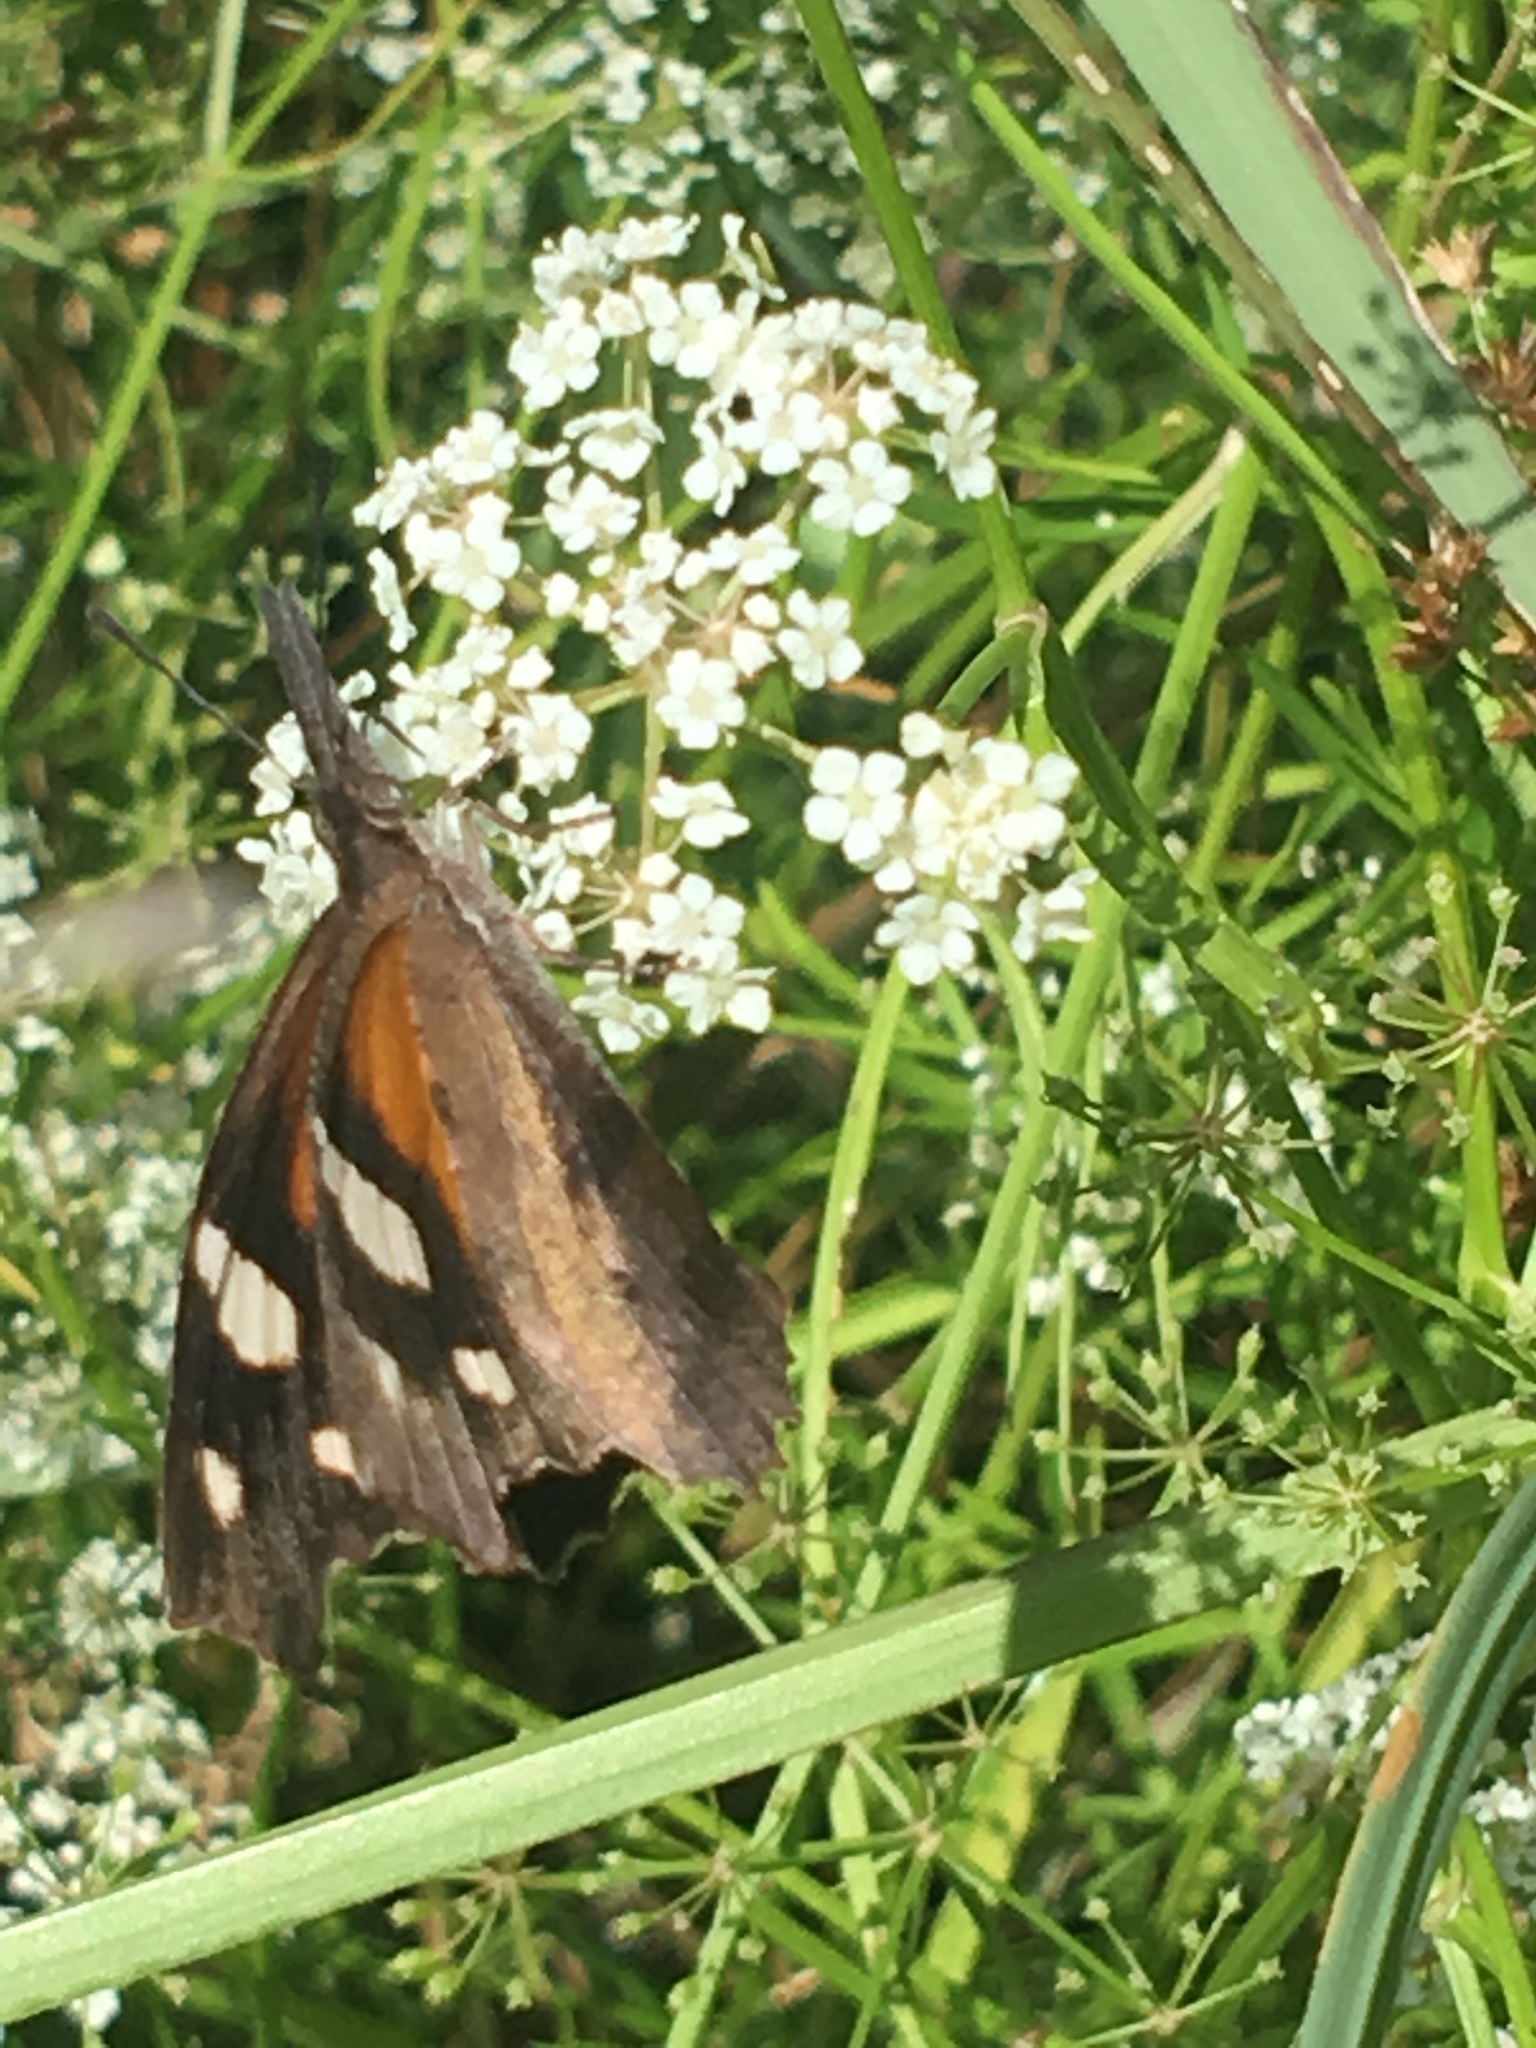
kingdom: Animalia
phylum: Arthropoda
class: Insecta
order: Lepidoptera
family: Nymphalidae
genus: Libytheana
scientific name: Libytheana carinenta
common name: American snout
